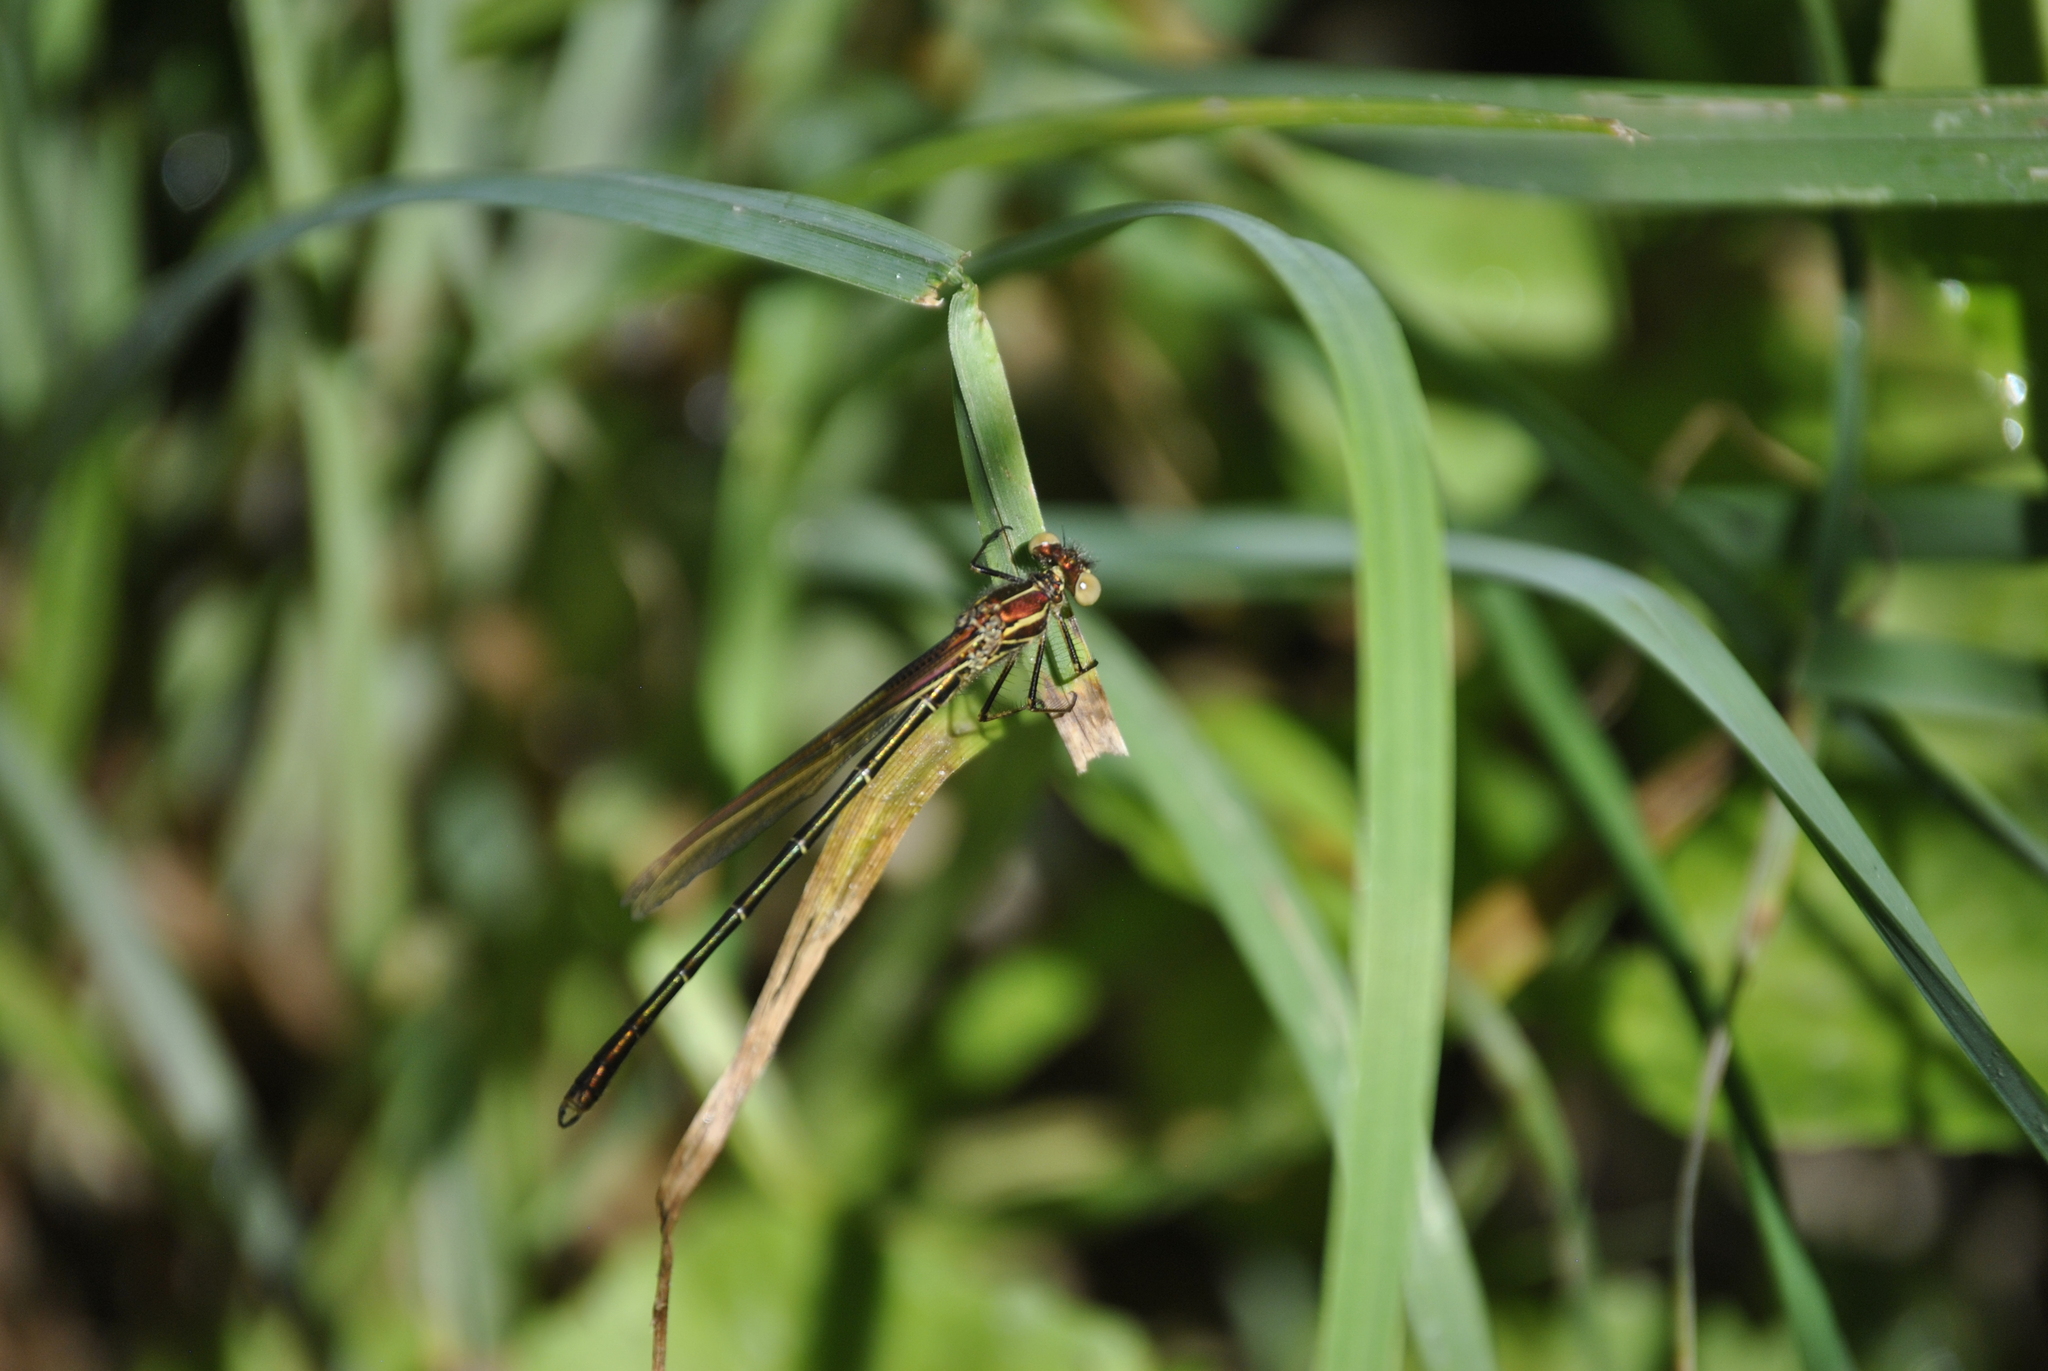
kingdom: Animalia
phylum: Arthropoda
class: Insecta
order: Odonata
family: Calopterygidae
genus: Hetaerina
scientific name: Hetaerina americana
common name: American rubyspot
